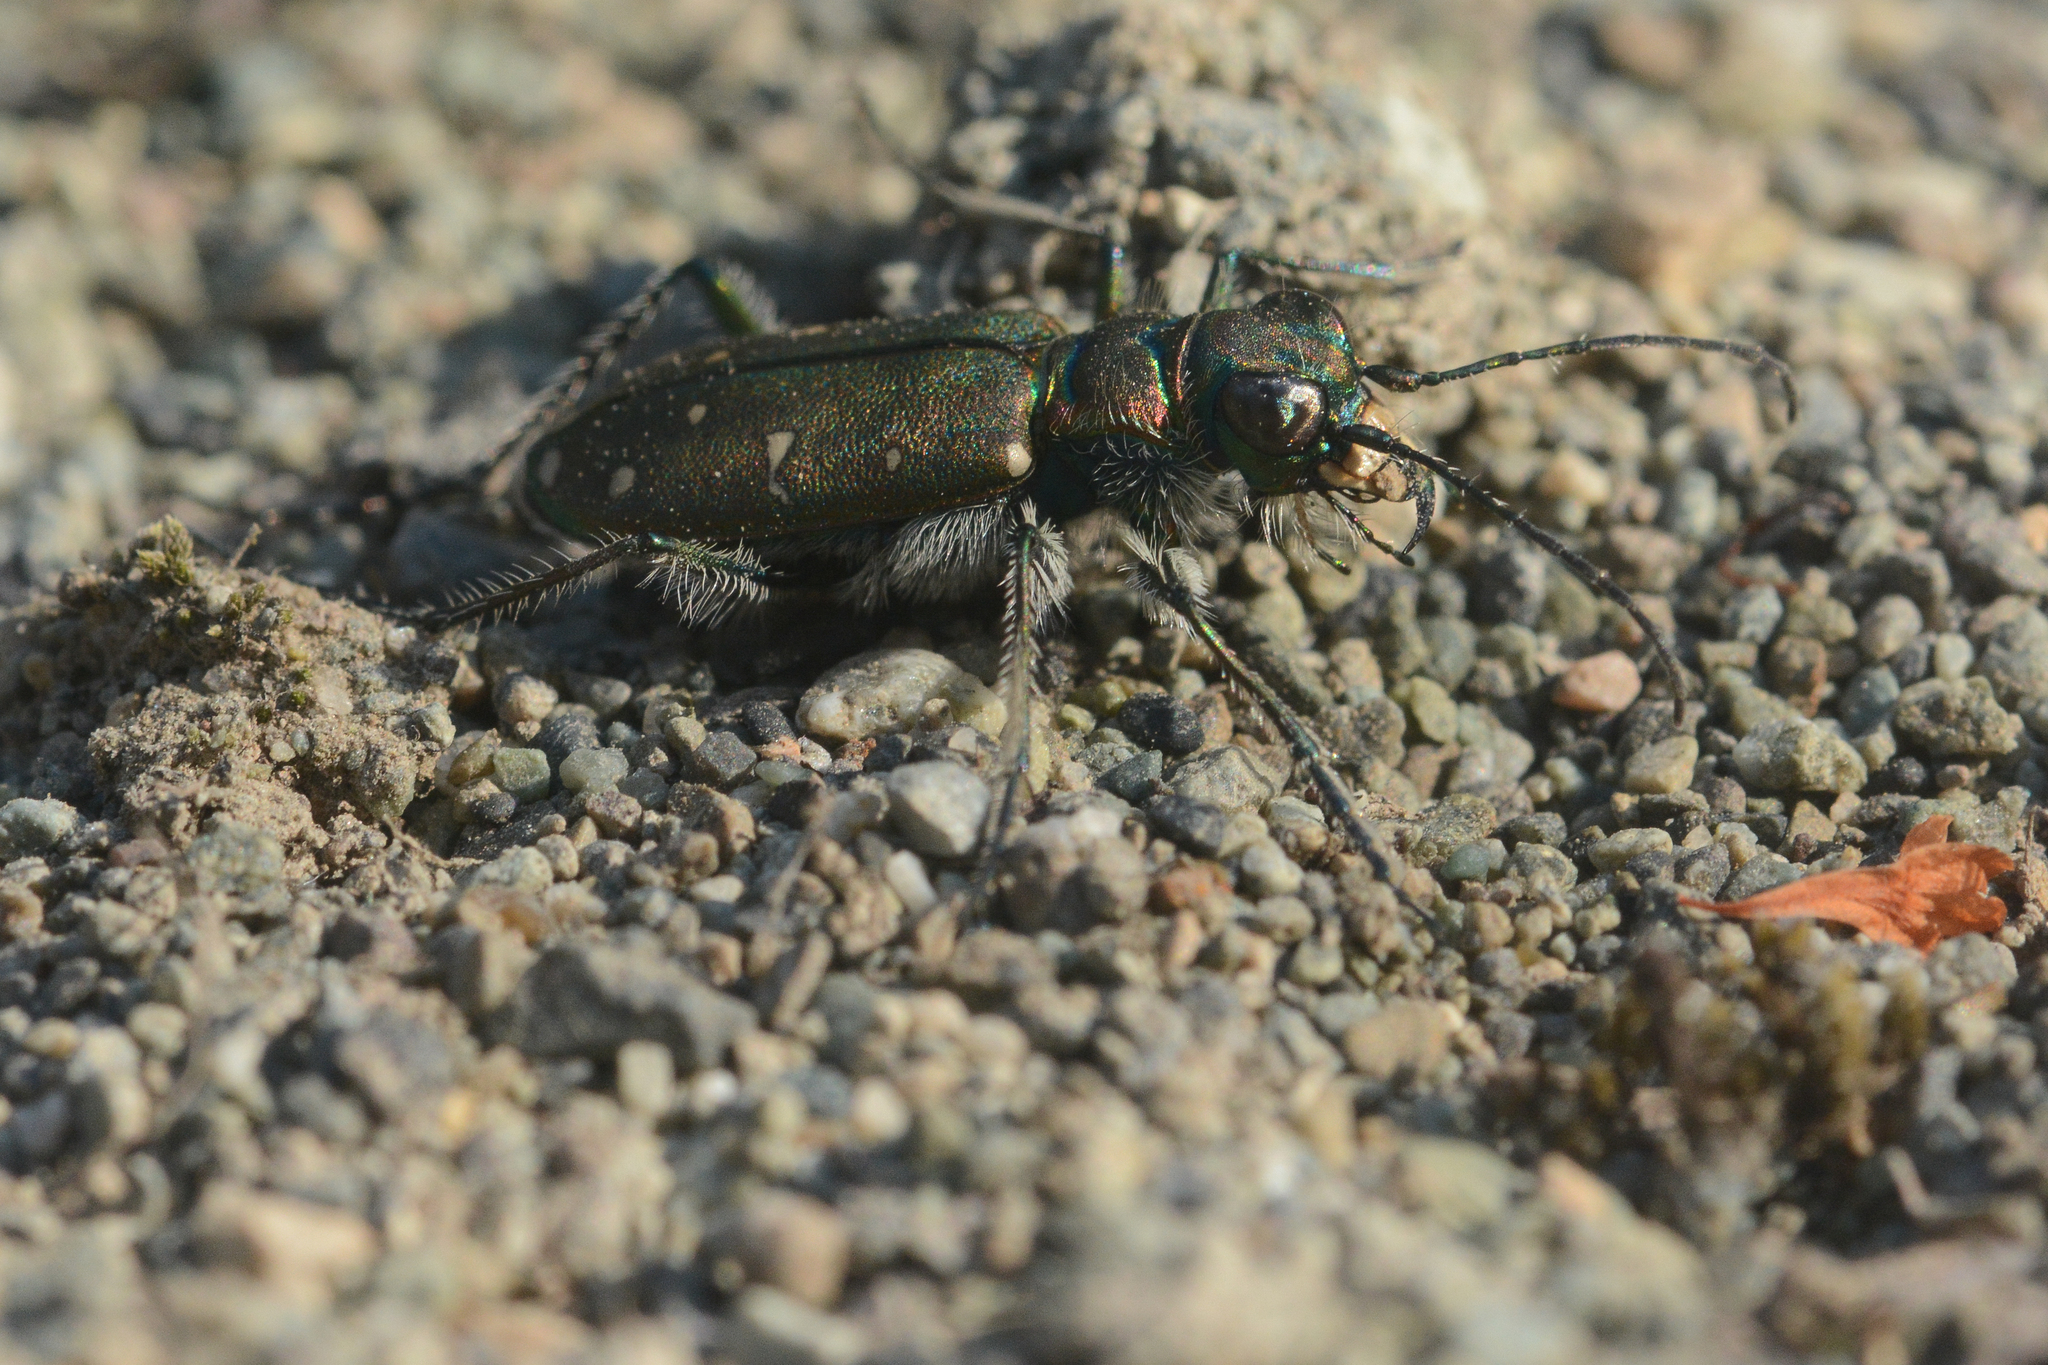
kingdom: Animalia
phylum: Arthropoda
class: Insecta
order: Coleoptera
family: Carabidae
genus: Cicindela
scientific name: Cicindela oregona
